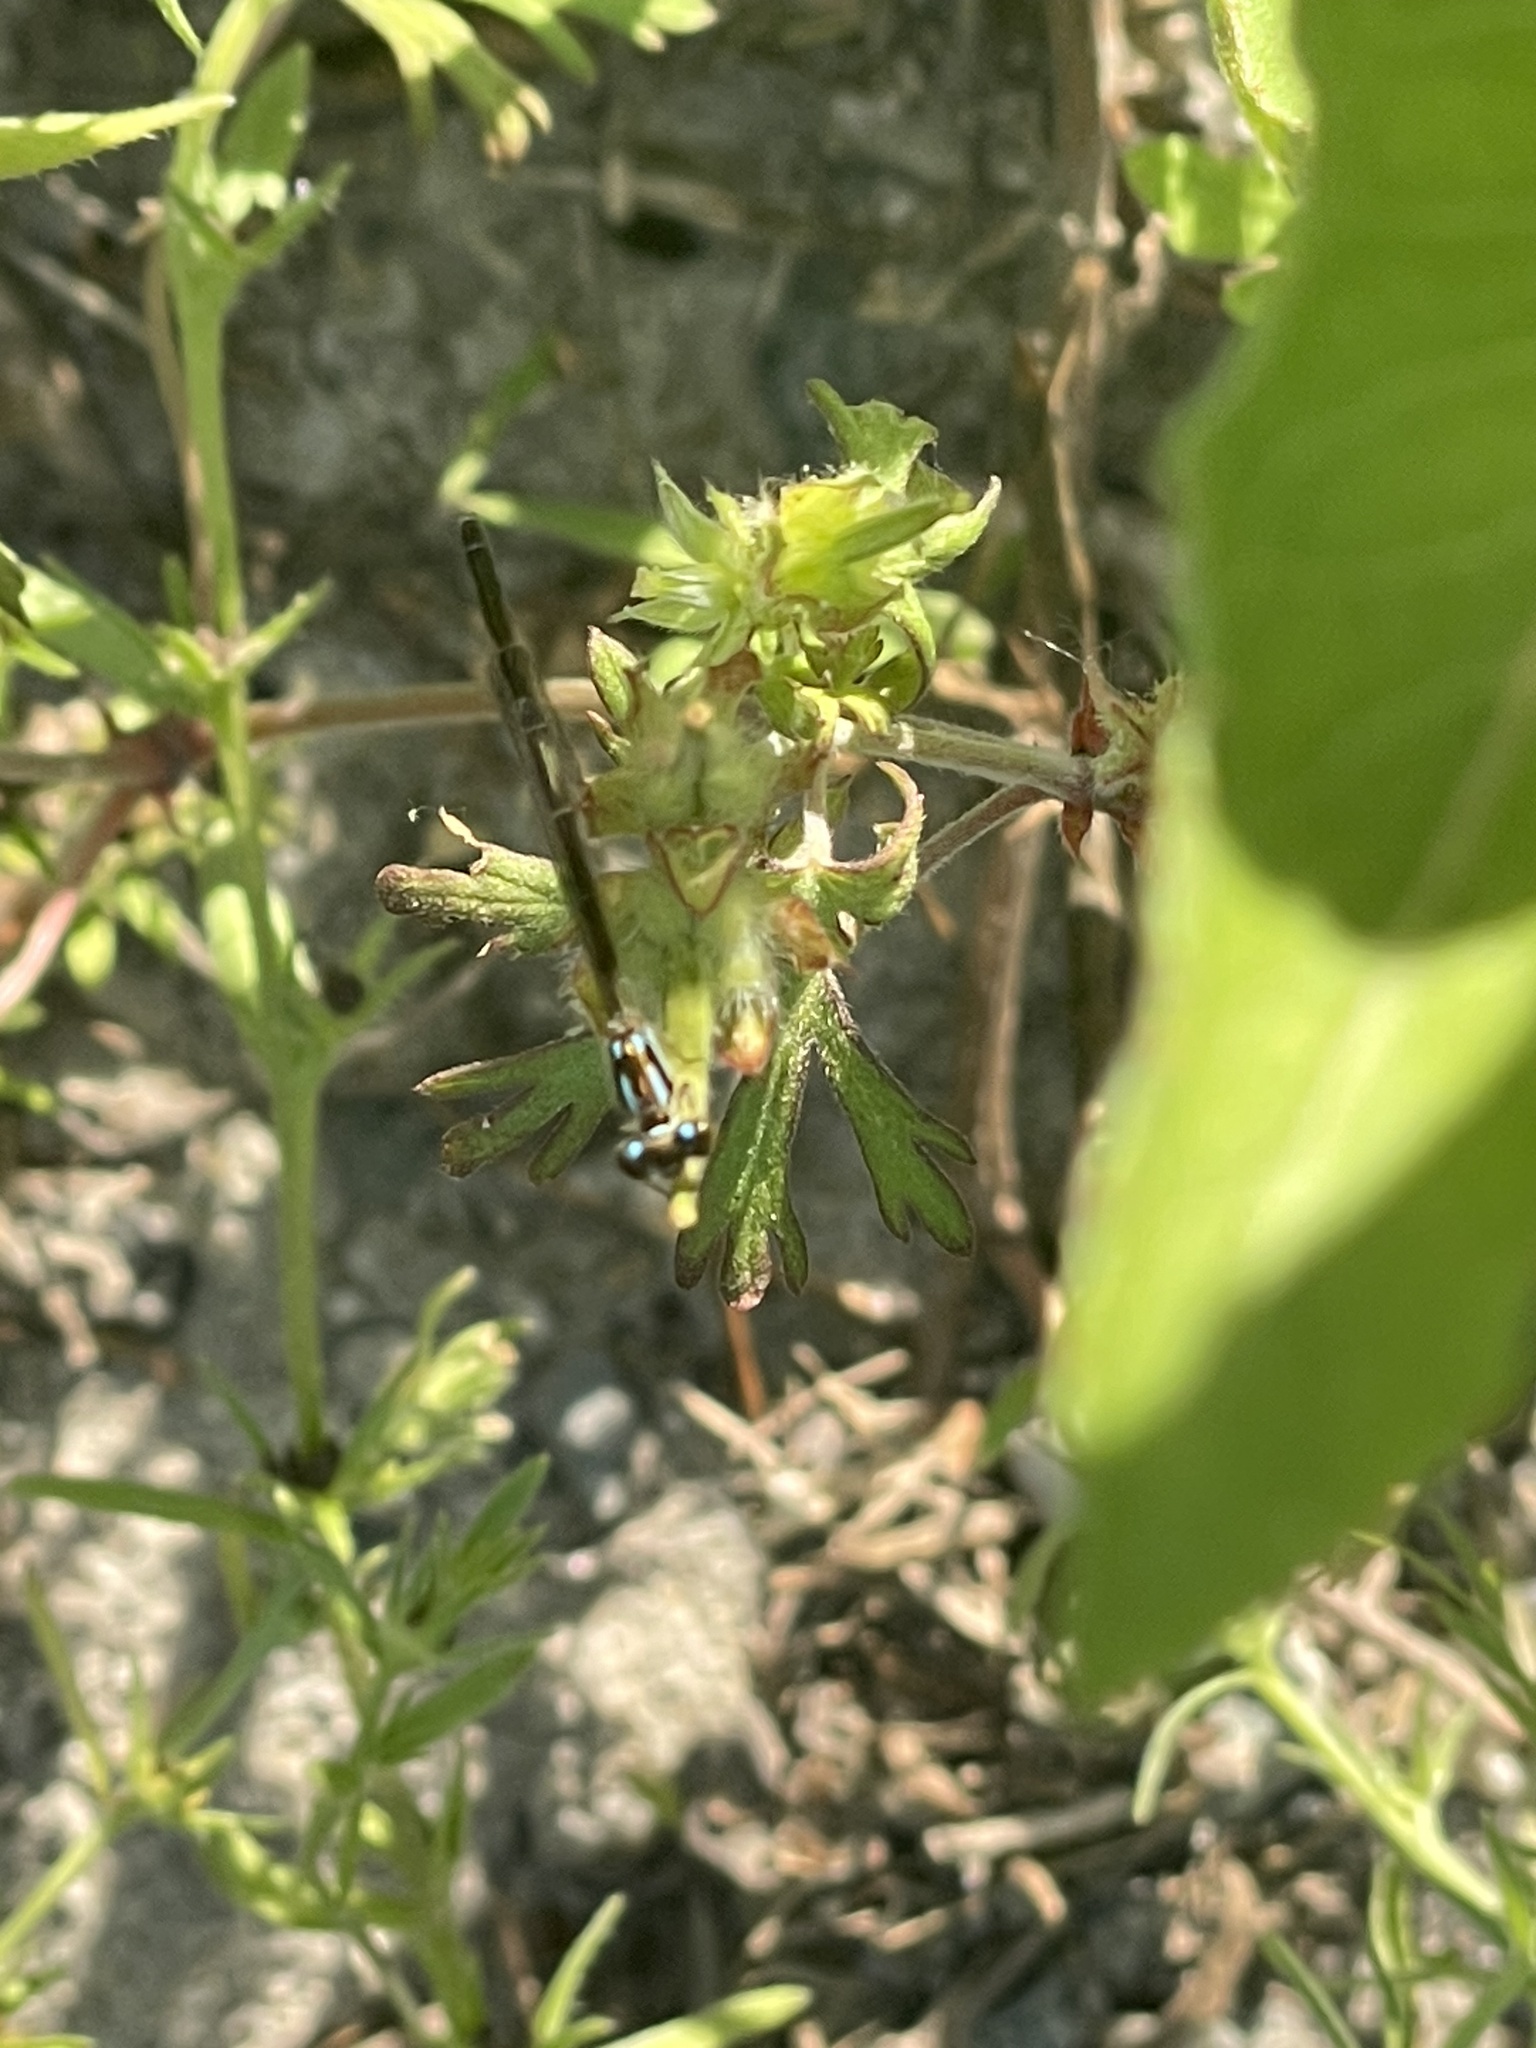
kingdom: Animalia
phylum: Arthropoda
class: Insecta
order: Odonata
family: Coenagrionidae
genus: Ischnura
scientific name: Ischnura posita
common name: Fragile forktail
